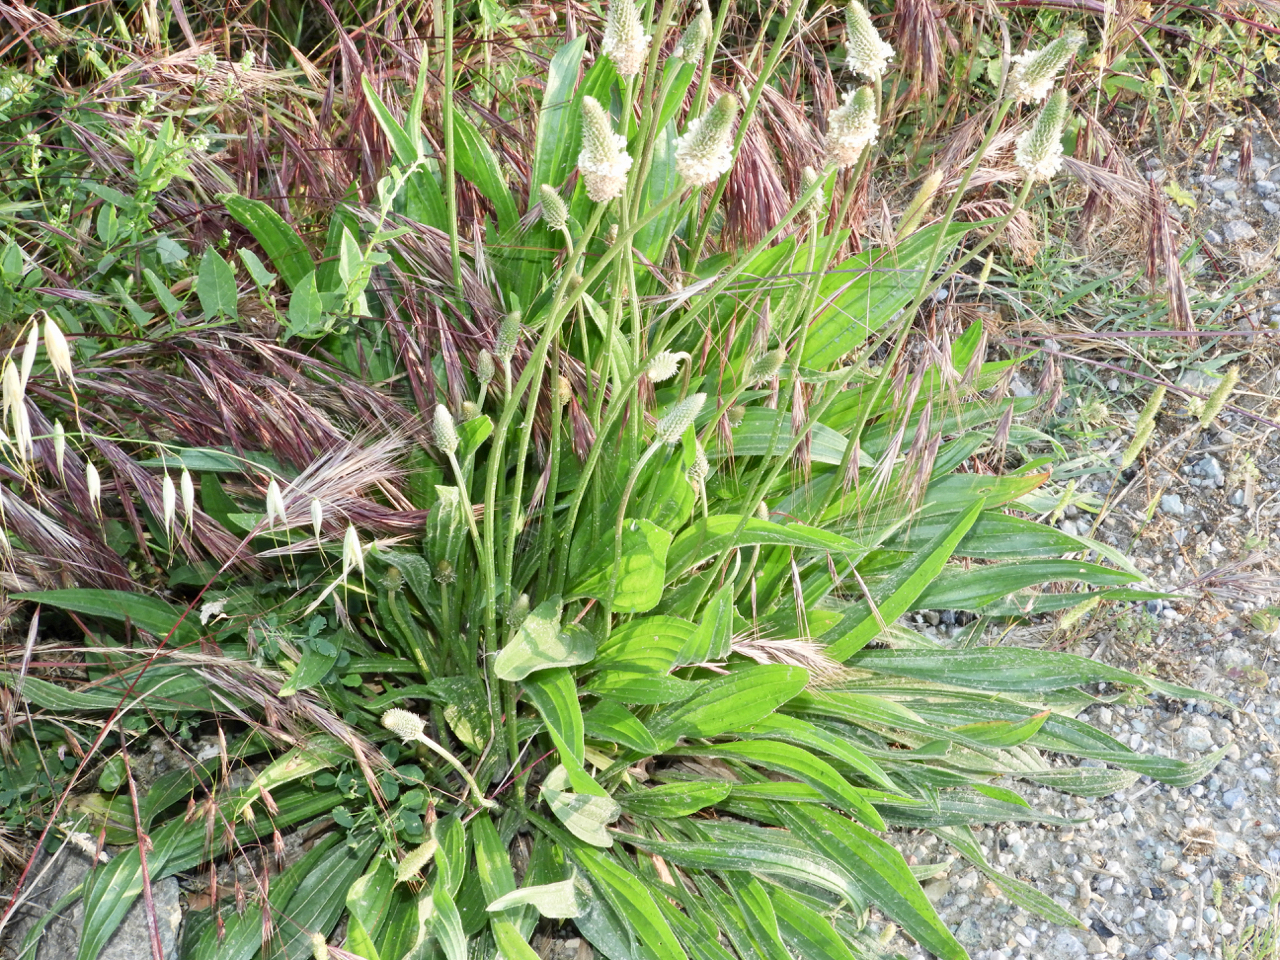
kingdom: Plantae
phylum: Tracheophyta
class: Magnoliopsida
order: Lamiales
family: Plantaginaceae
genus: Plantago
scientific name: Plantago lanceolata
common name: Ribwort plantain
